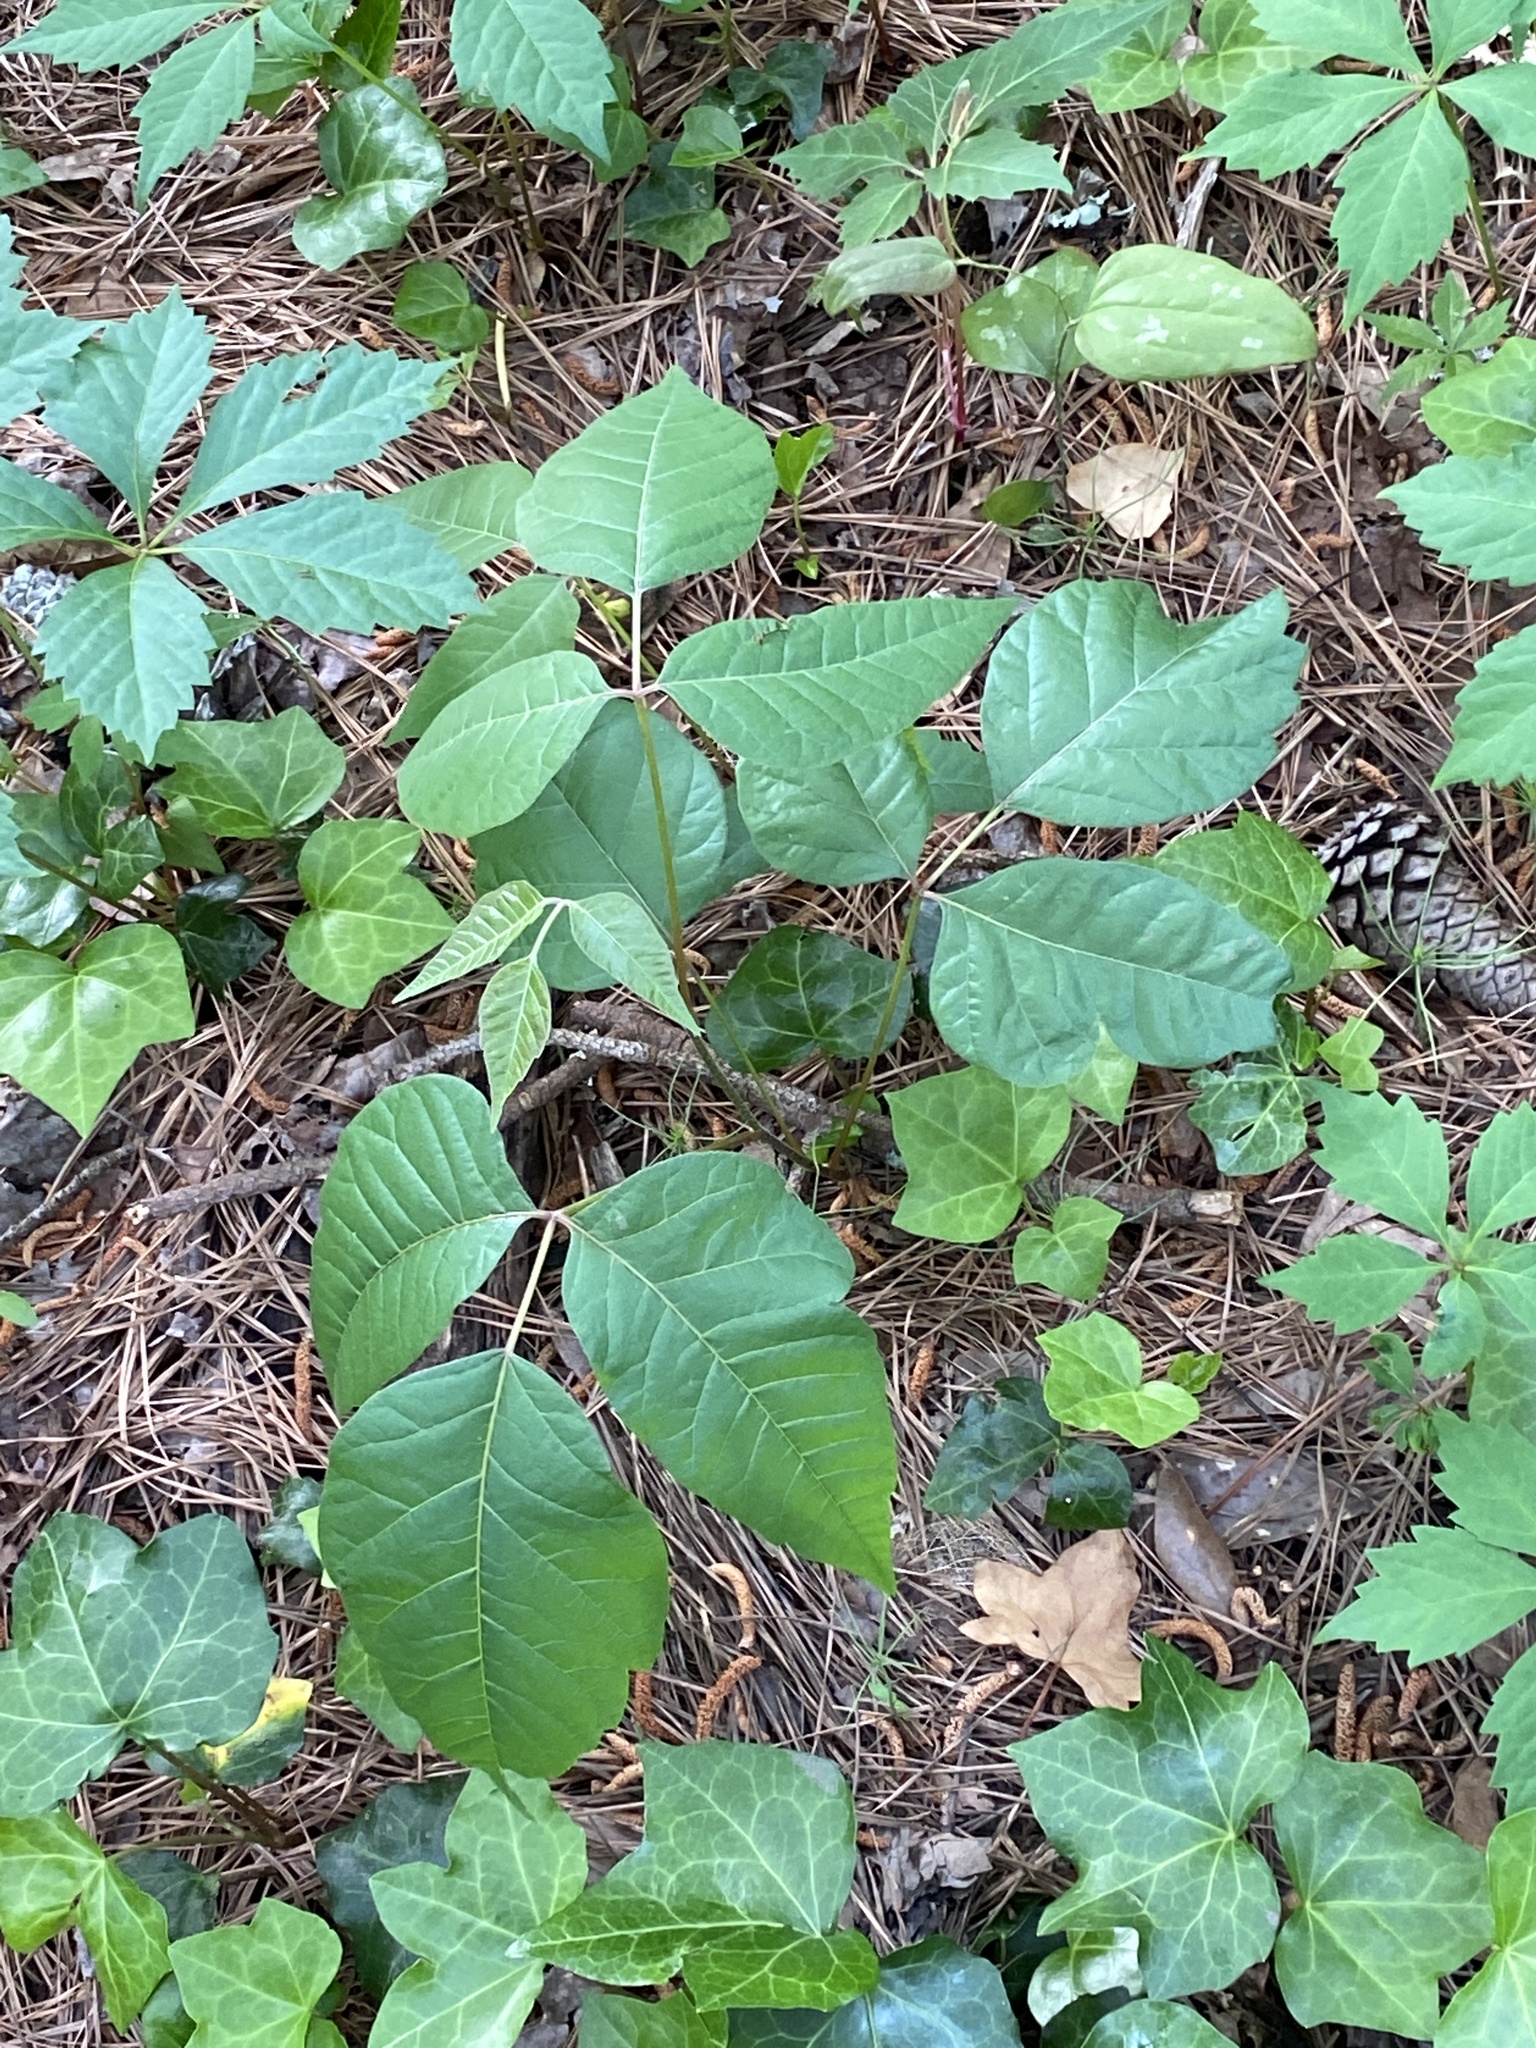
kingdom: Plantae
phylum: Tracheophyta
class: Magnoliopsida
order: Sapindales
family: Anacardiaceae
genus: Toxicodendron
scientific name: Toxicodendron radicans
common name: Poison ivy
